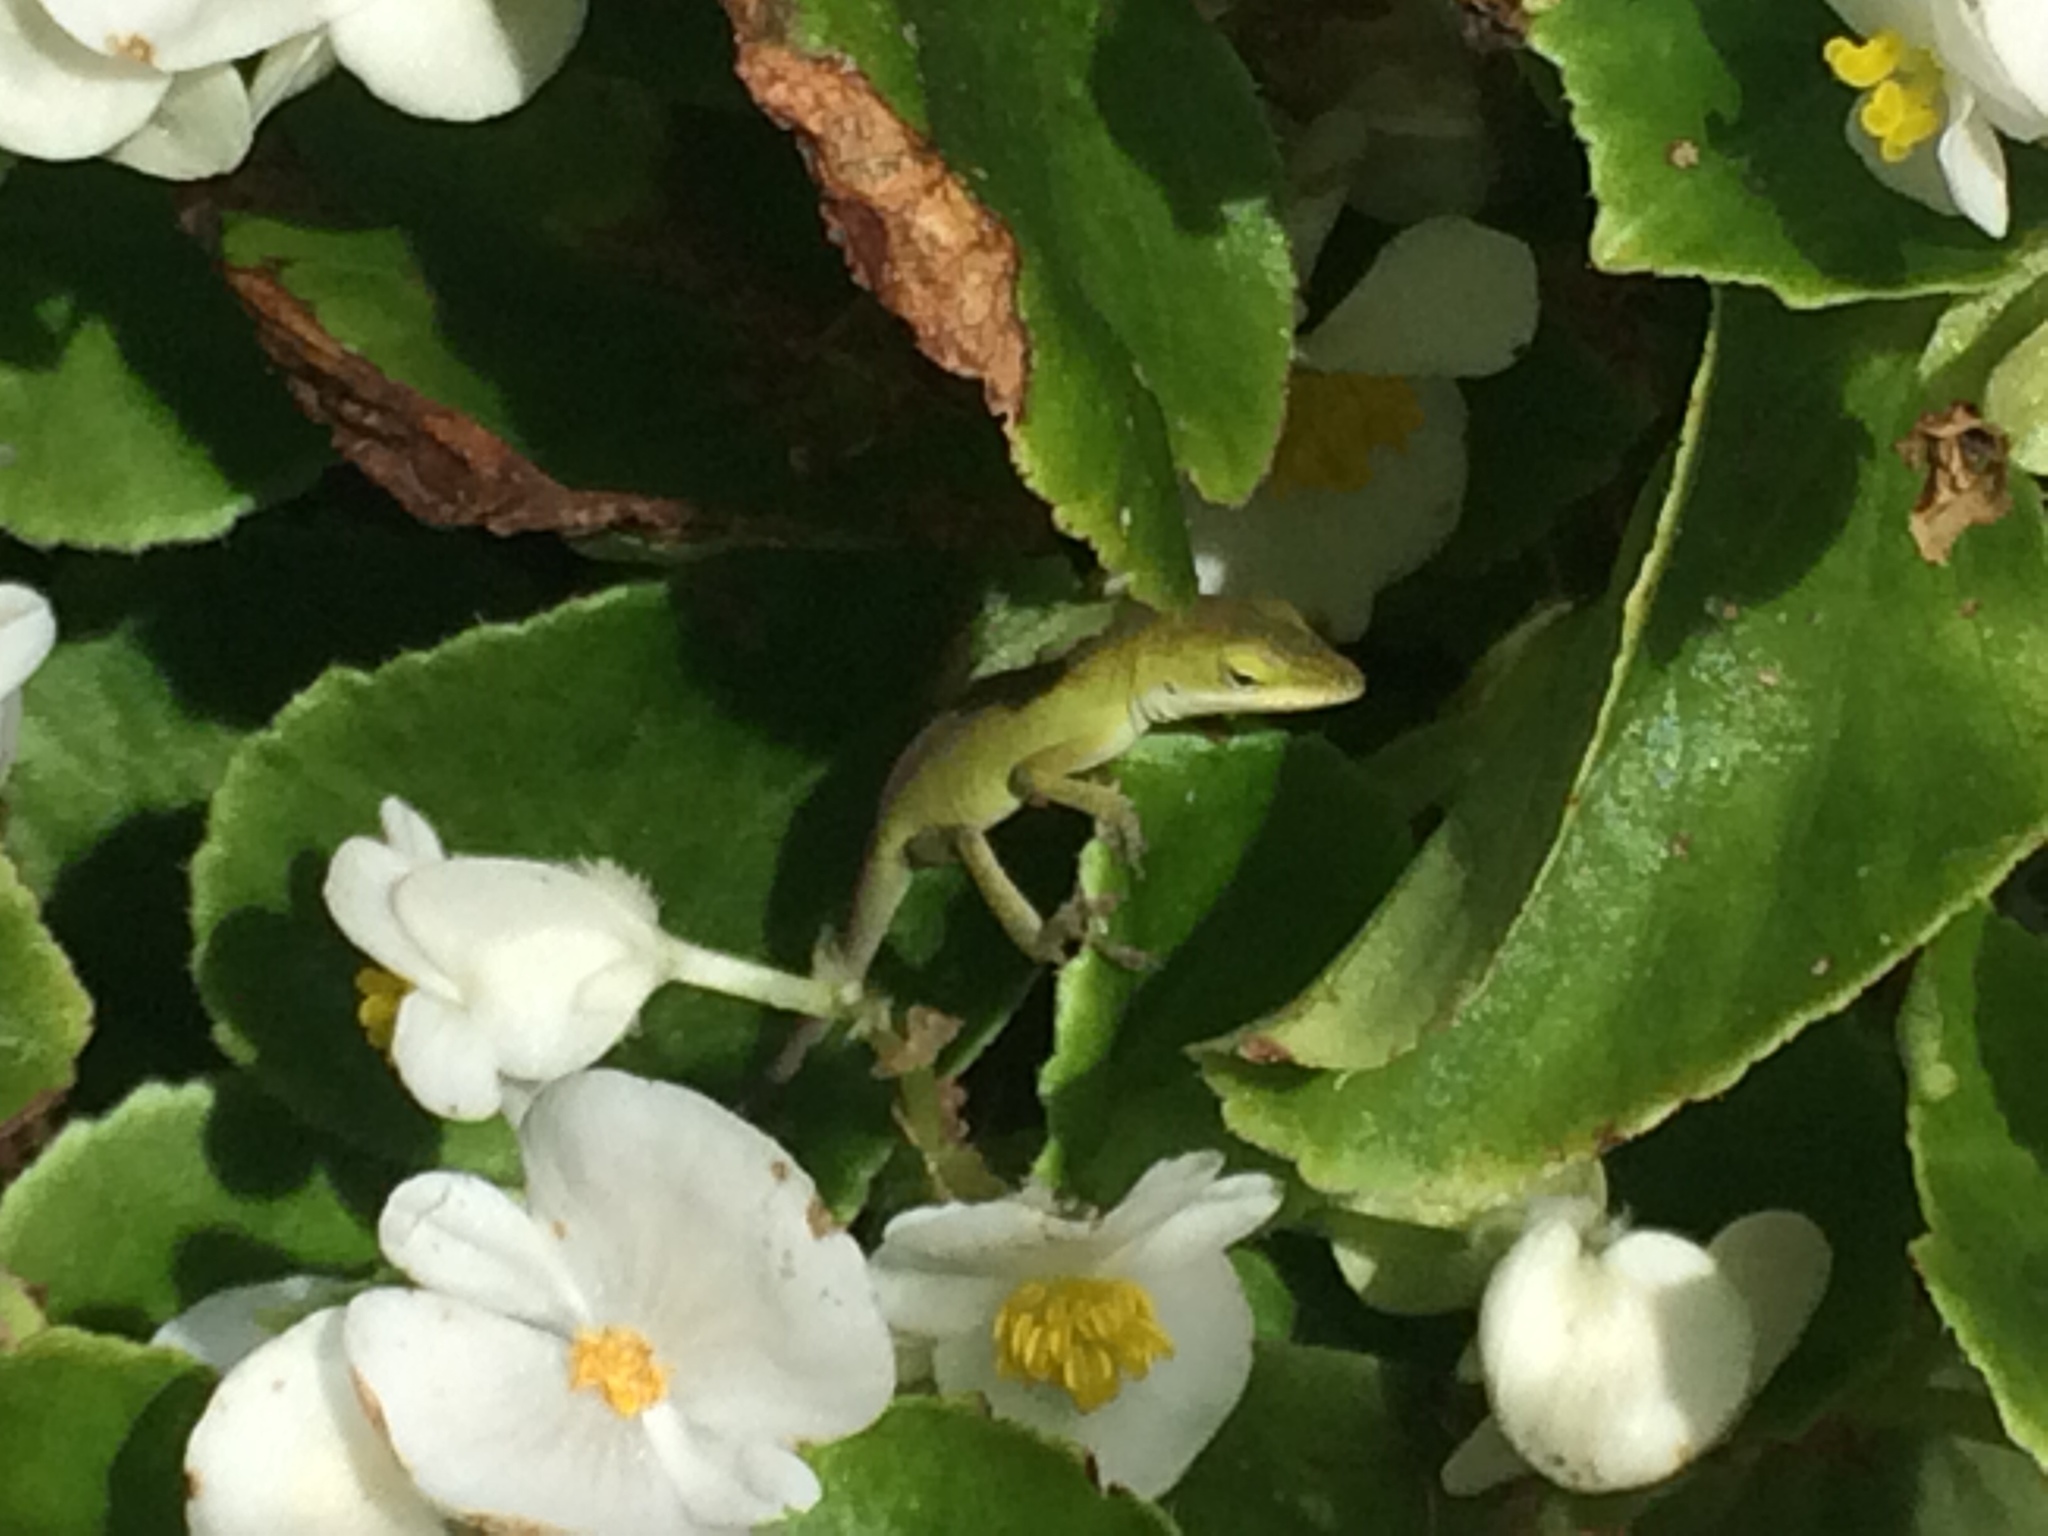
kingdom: Animalia
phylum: Chordata
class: Squamata
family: Dactyloidae
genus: Anolis
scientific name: Anolis carolinensis
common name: Green anole
